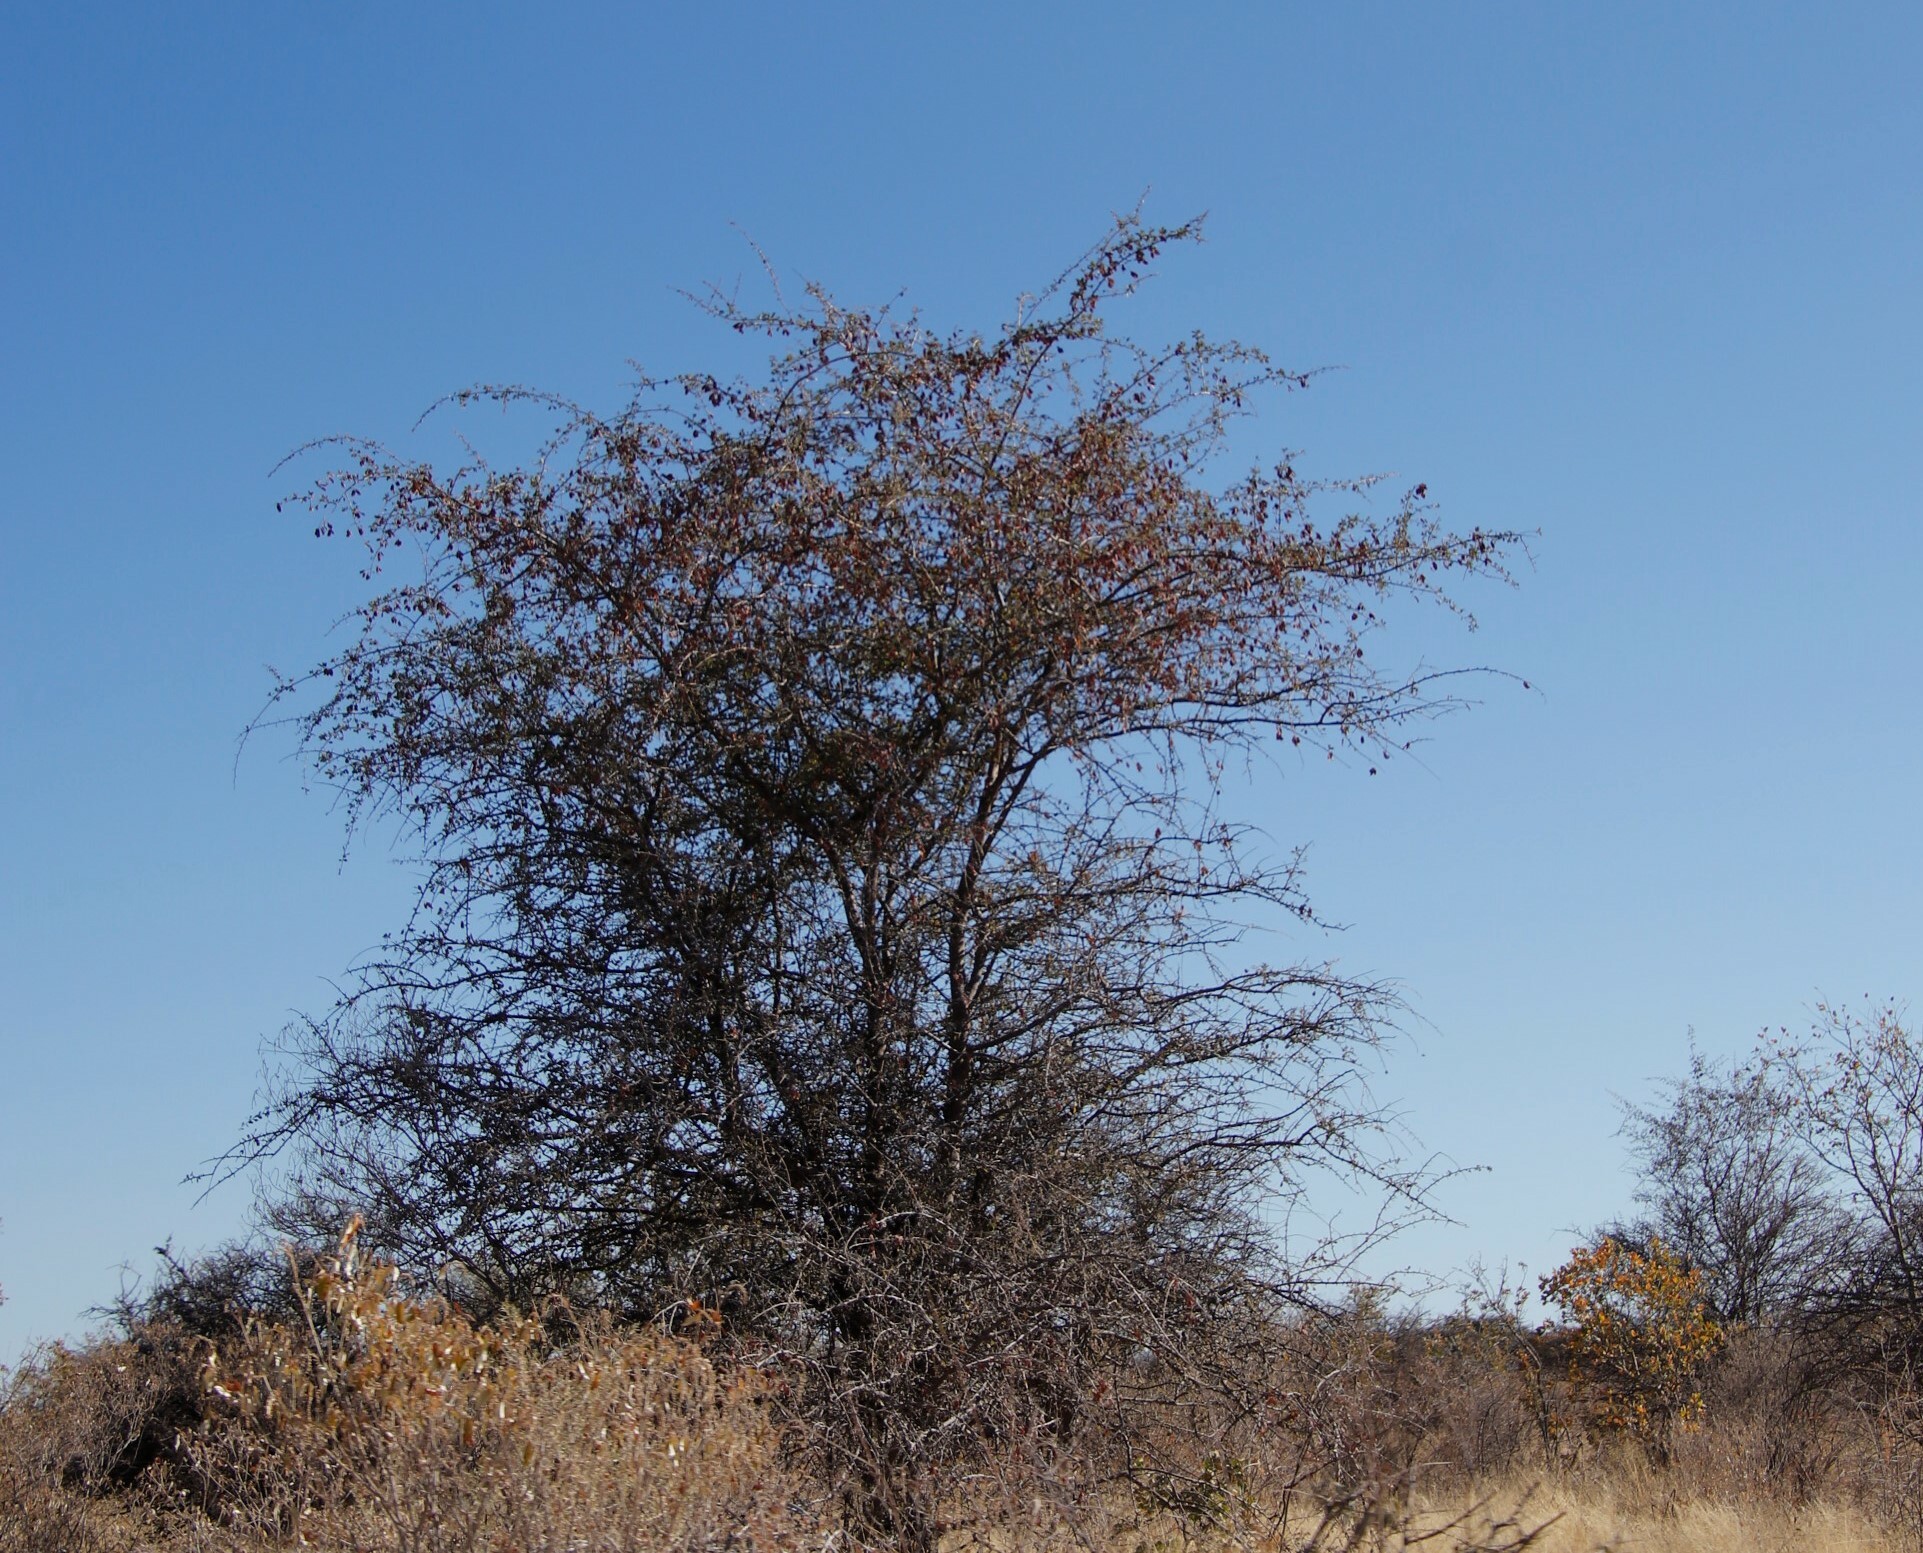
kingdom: Plantae
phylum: Tracheophyta
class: Magnoliopsida
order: Myrtales
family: Combretaceae
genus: Terminalia
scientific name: Terminalia prunioides
